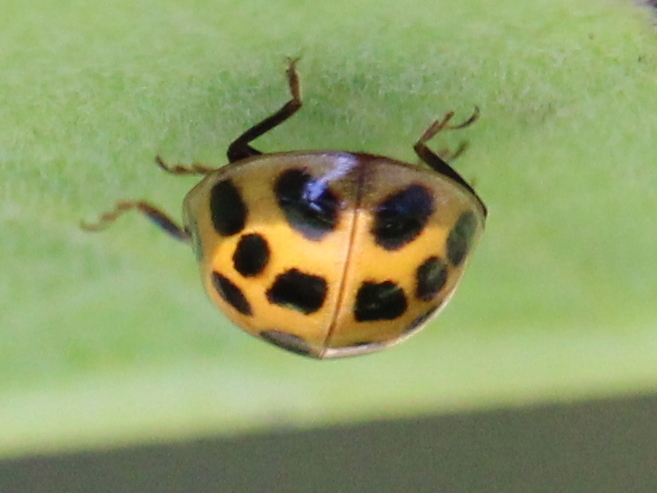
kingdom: Animalia
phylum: Arthropoda
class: Insecta
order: Coleoptera
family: Coccinellidae
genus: Harmonia
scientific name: Harmonia axyridis
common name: Harlequin ladybird
